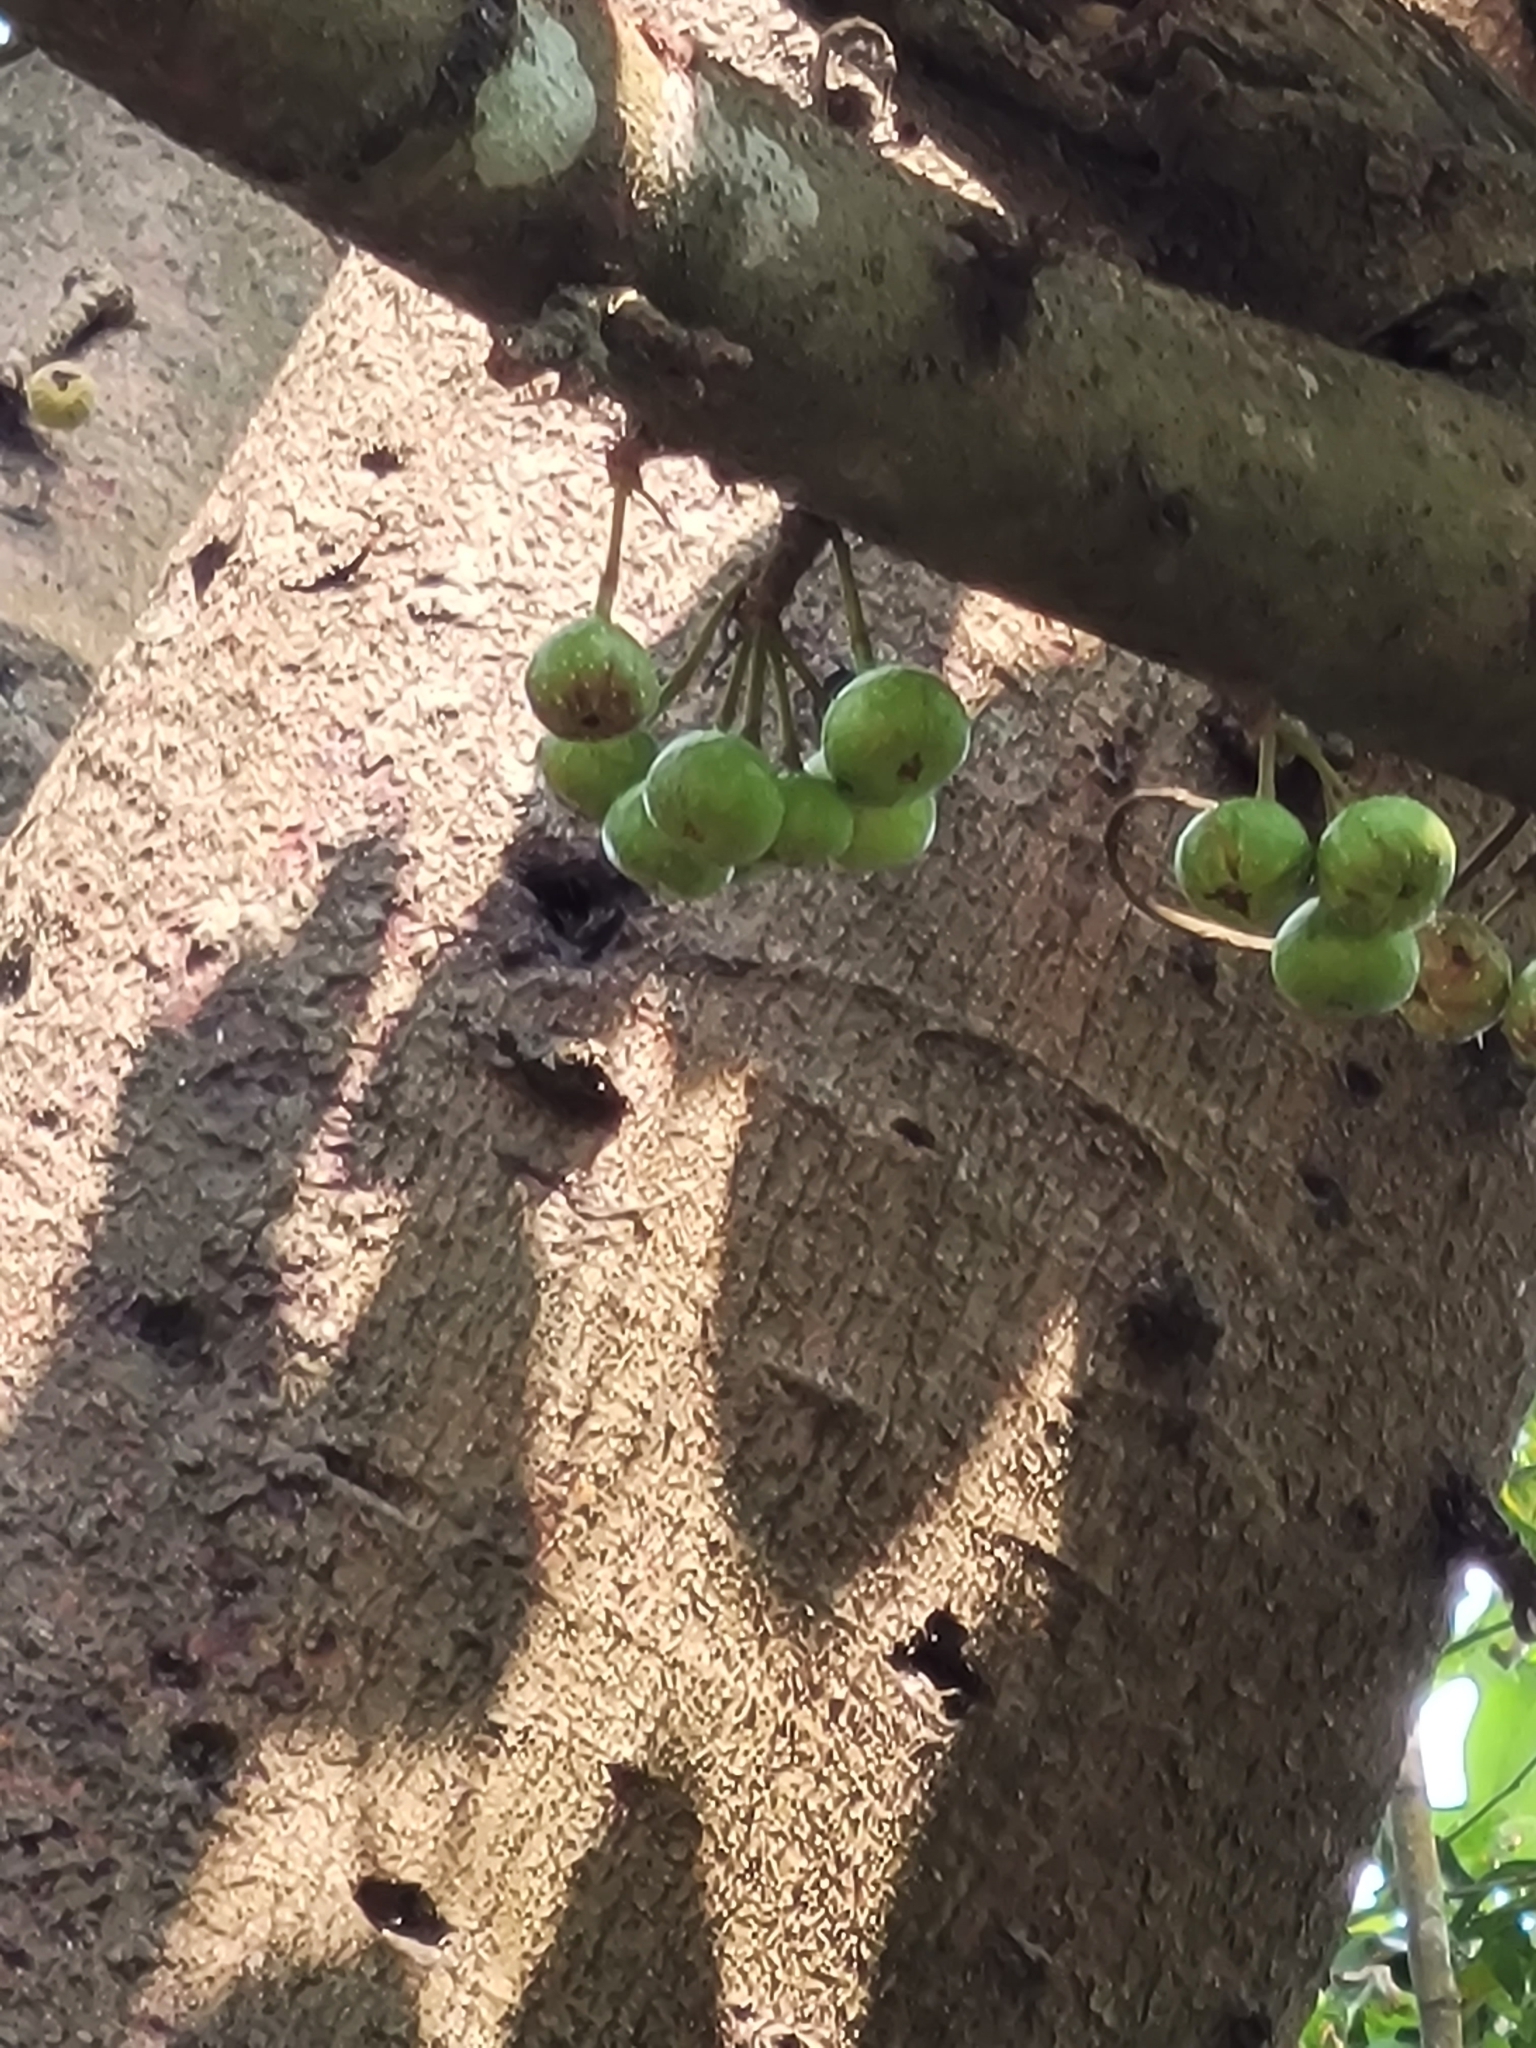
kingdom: Plantae
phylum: Tracheophyta
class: Magnoliopsida
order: Rosales
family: Moraceae
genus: Ficus
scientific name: Ficus variegata
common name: Variegated fig
